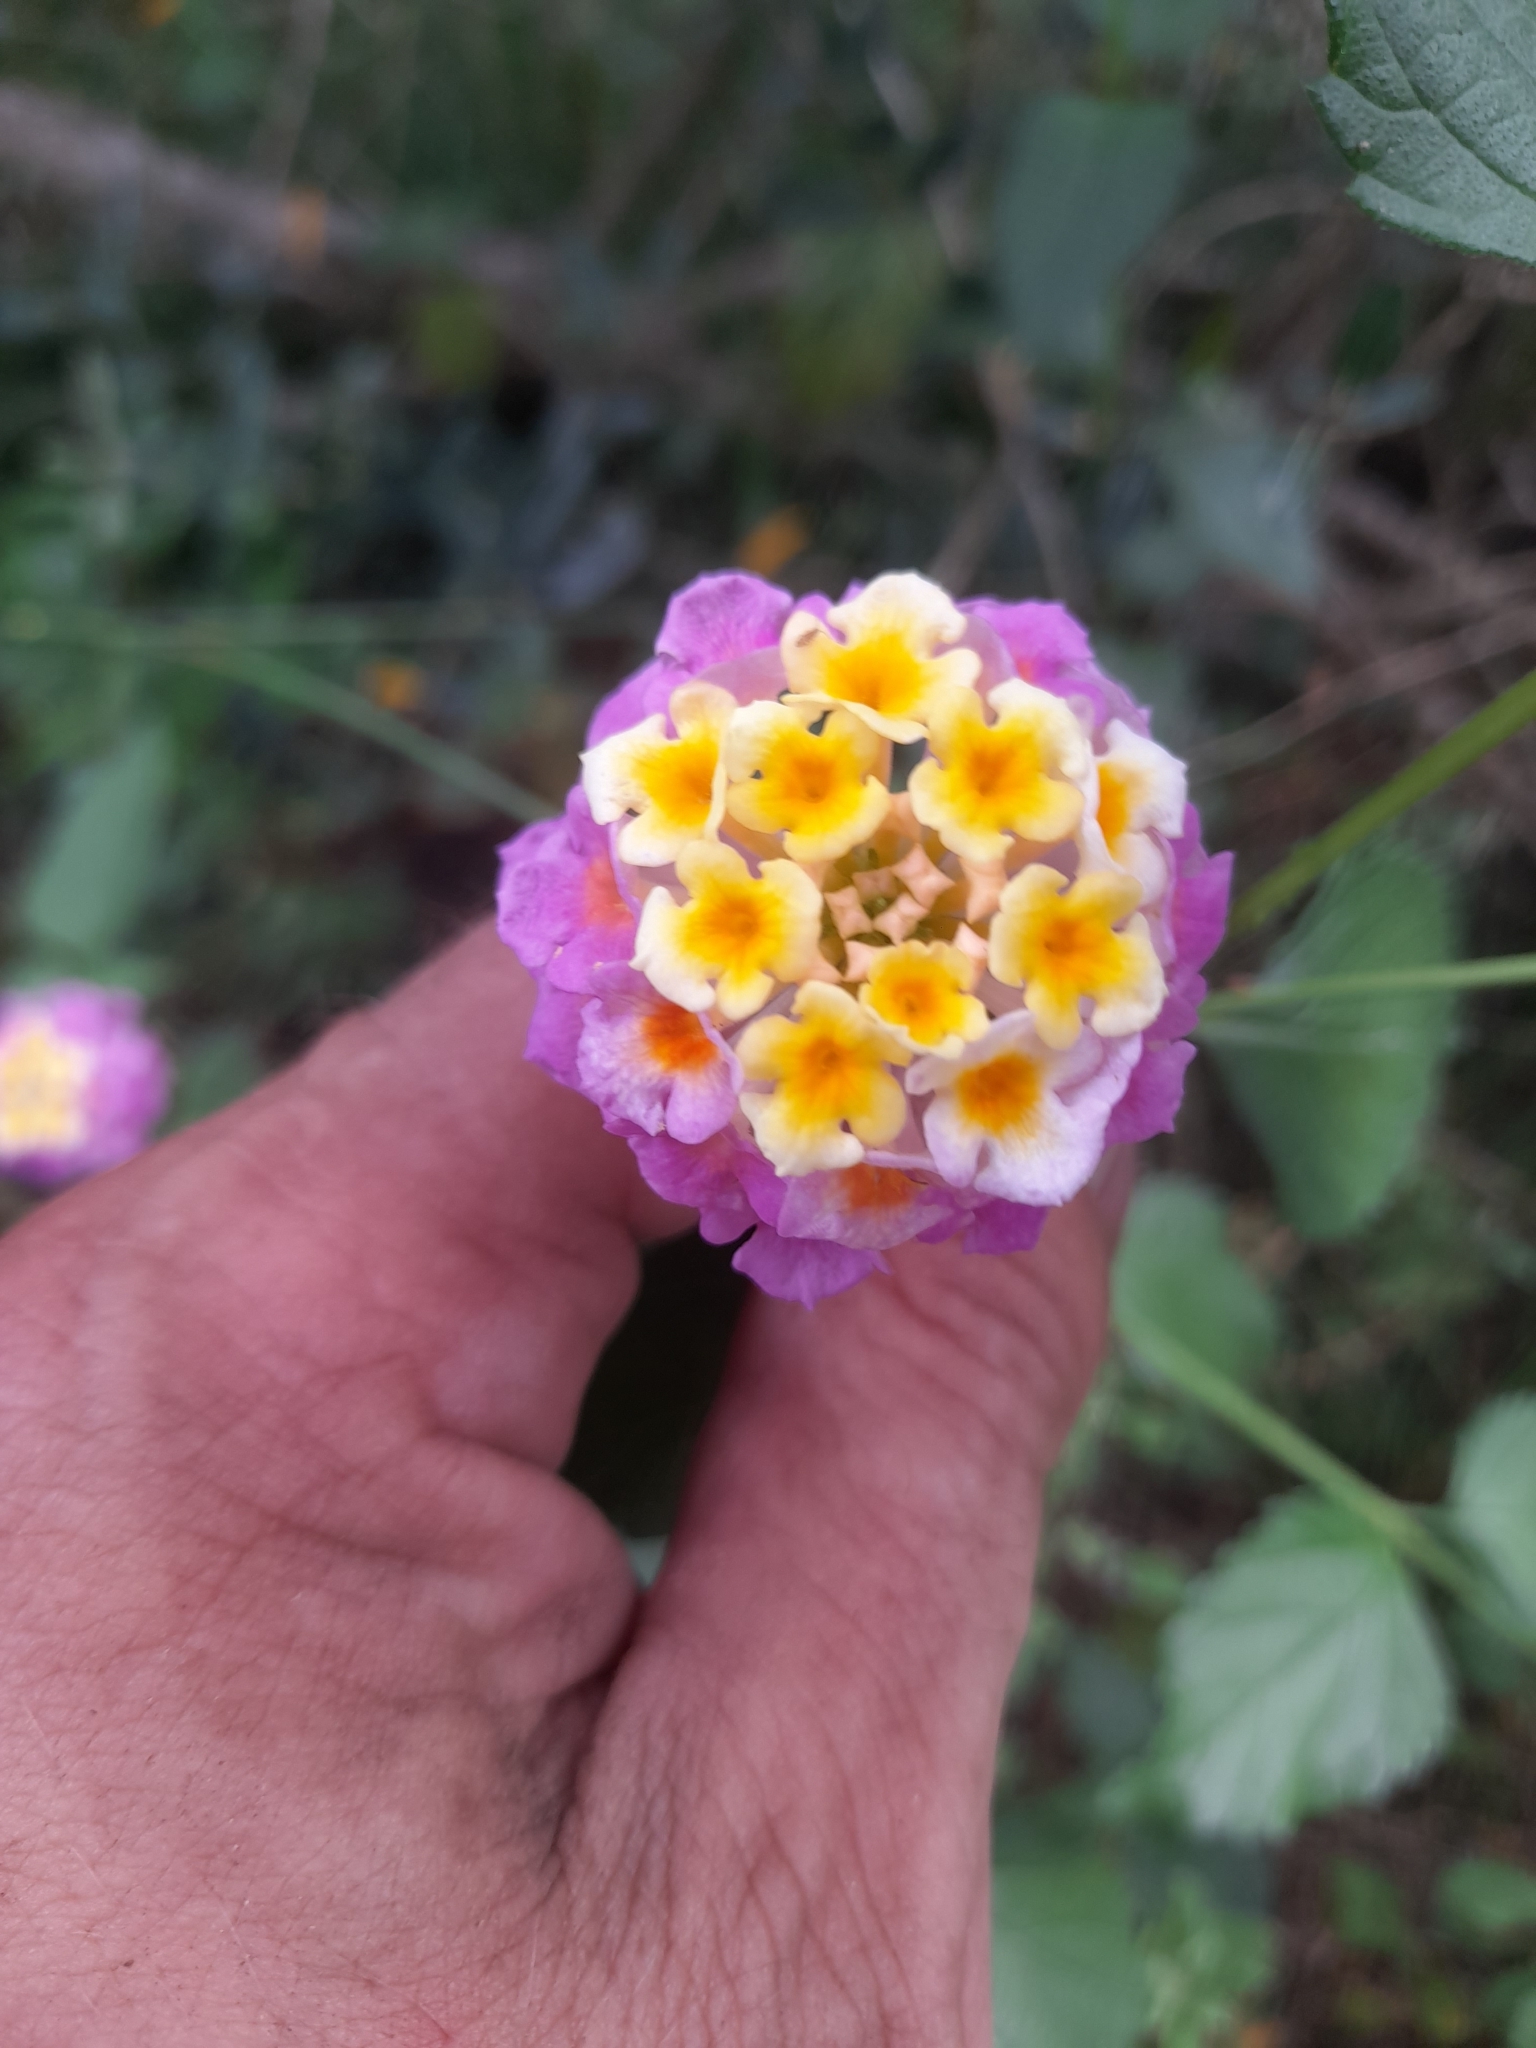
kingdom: Plantae
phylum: Tracheophyta
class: Magnoliopsida
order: Lamiales
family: Verbenaceae
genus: Lantana
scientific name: Lantana strigocamara
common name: Lantana
